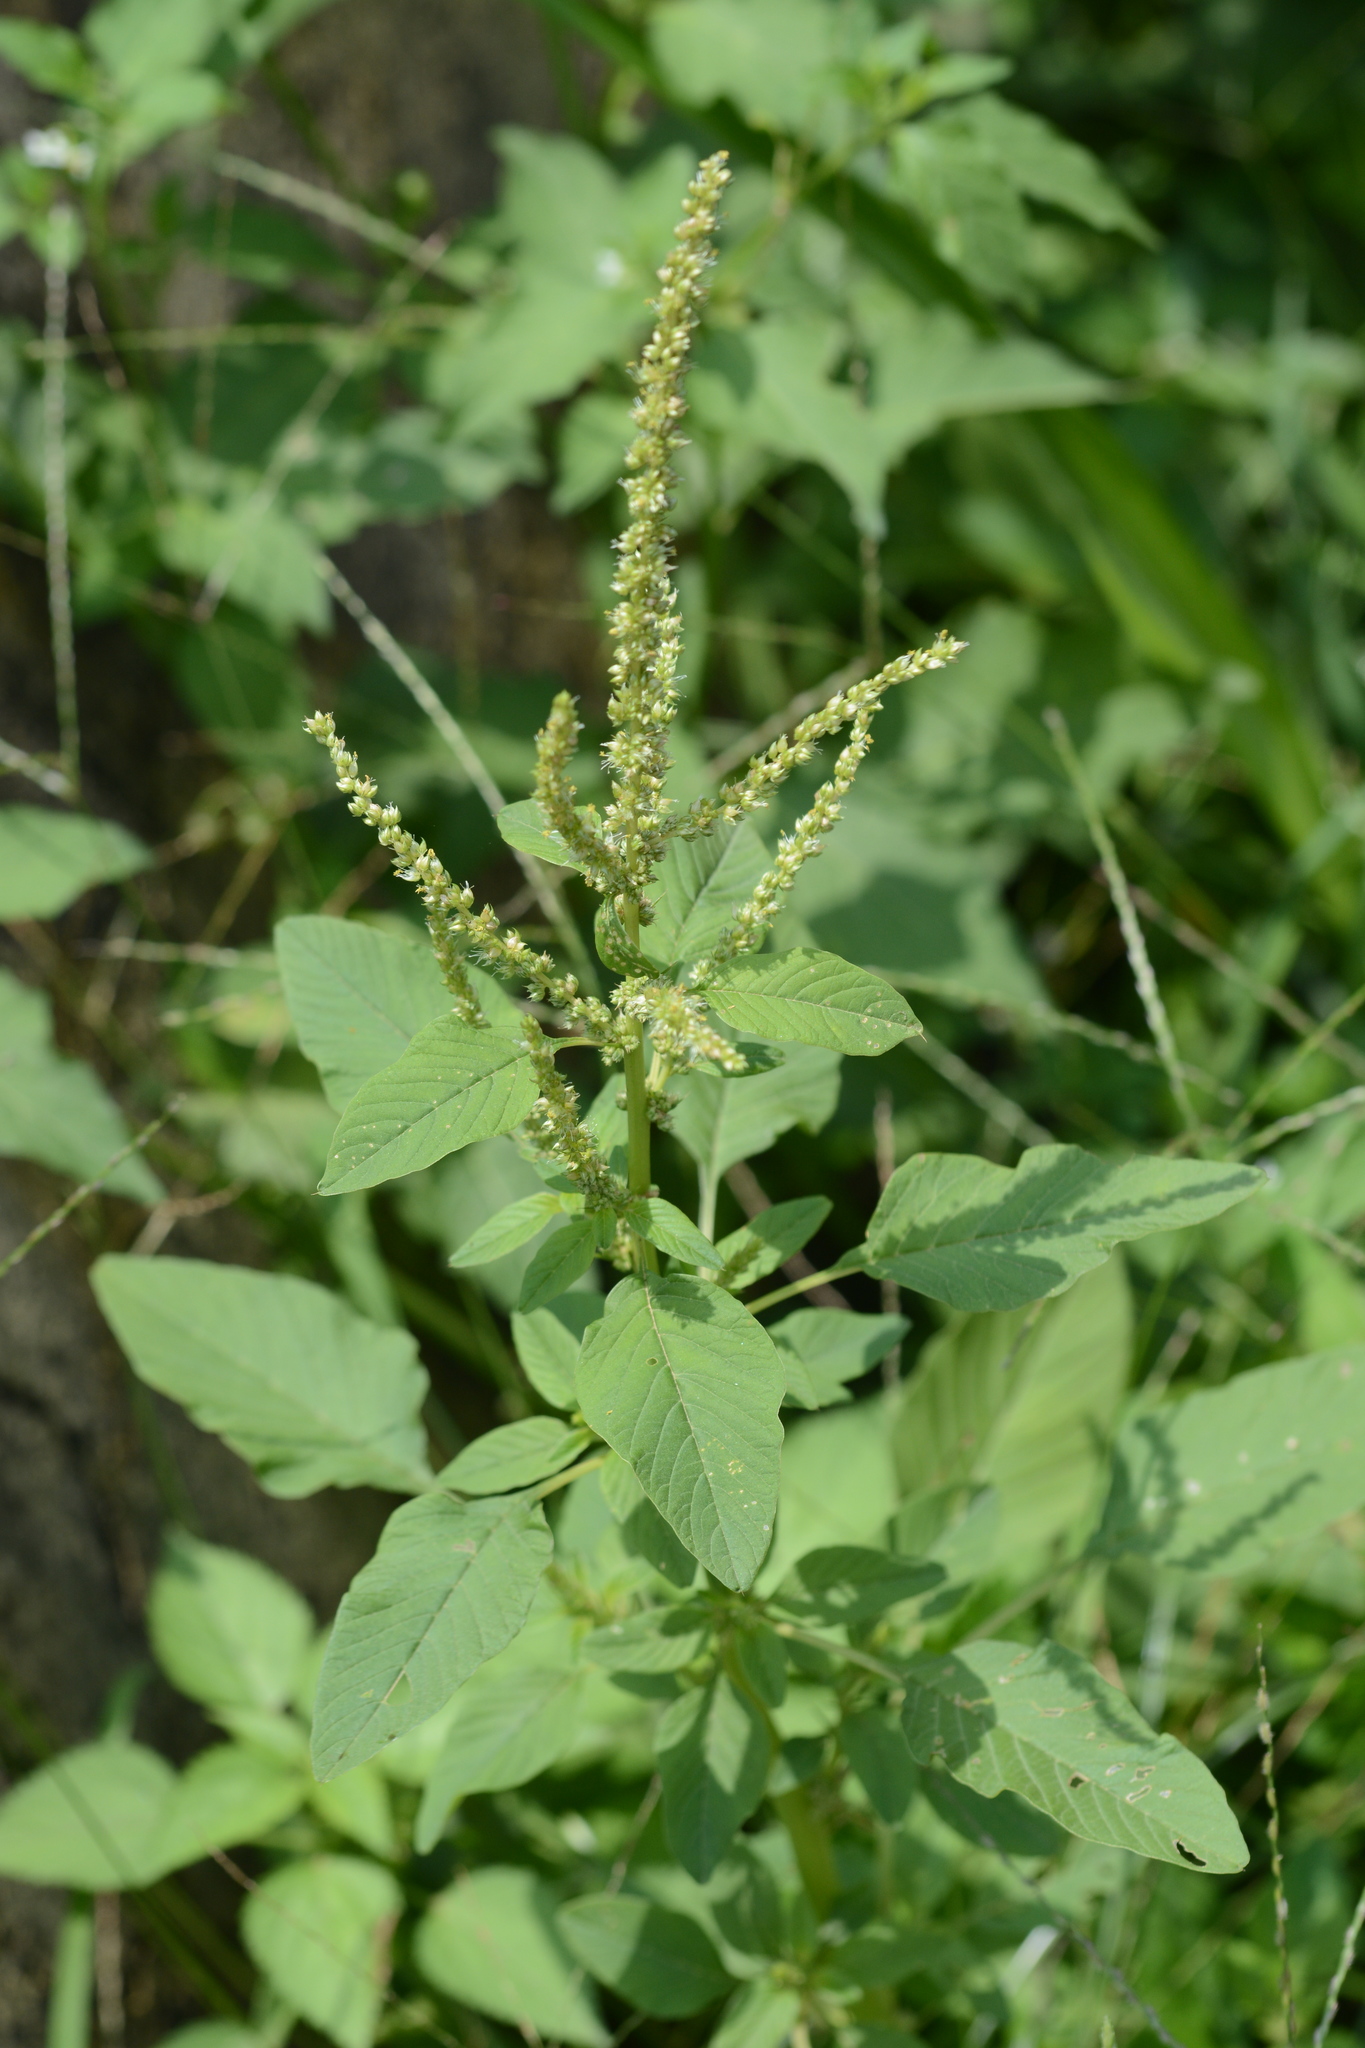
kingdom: Plantae
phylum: Tracheophyta
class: Magnoliopsida
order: Caryophyllales
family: Amaranthaceae
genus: Amaranthus
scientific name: Amaranthus viridis
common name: Slender amaranth
